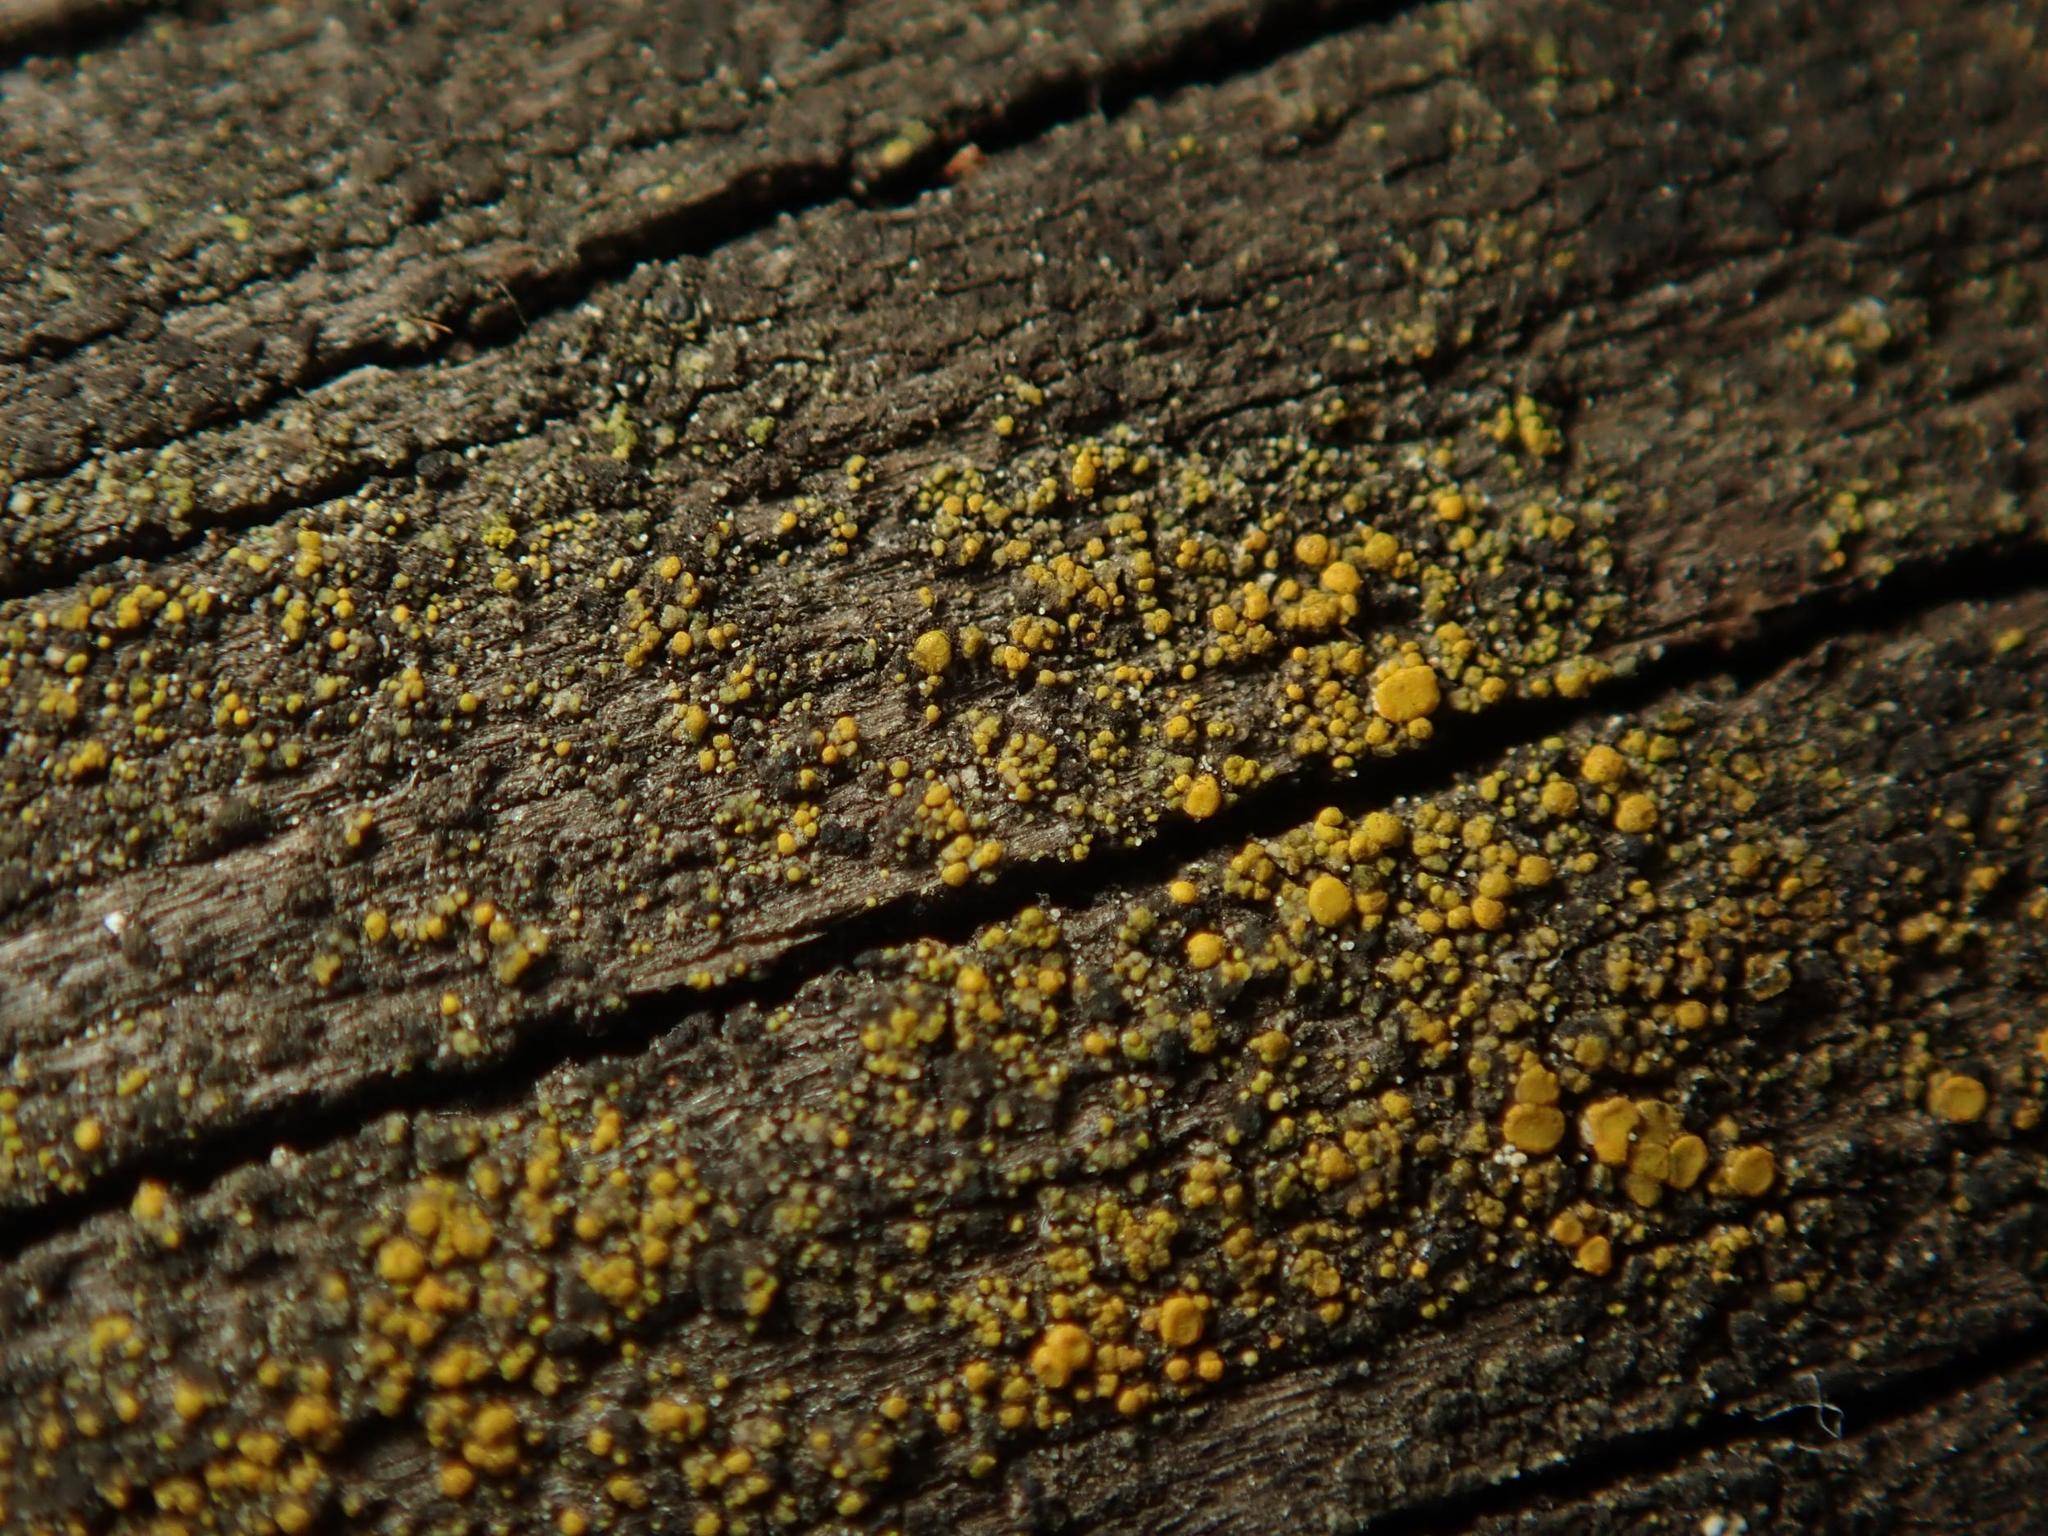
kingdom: Fungi
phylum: Ascomycota
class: Candelariomycetes
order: Candelariales
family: Candelariaceae
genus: Candelariella
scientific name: Candelariella vitellina
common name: Common goldspeck
